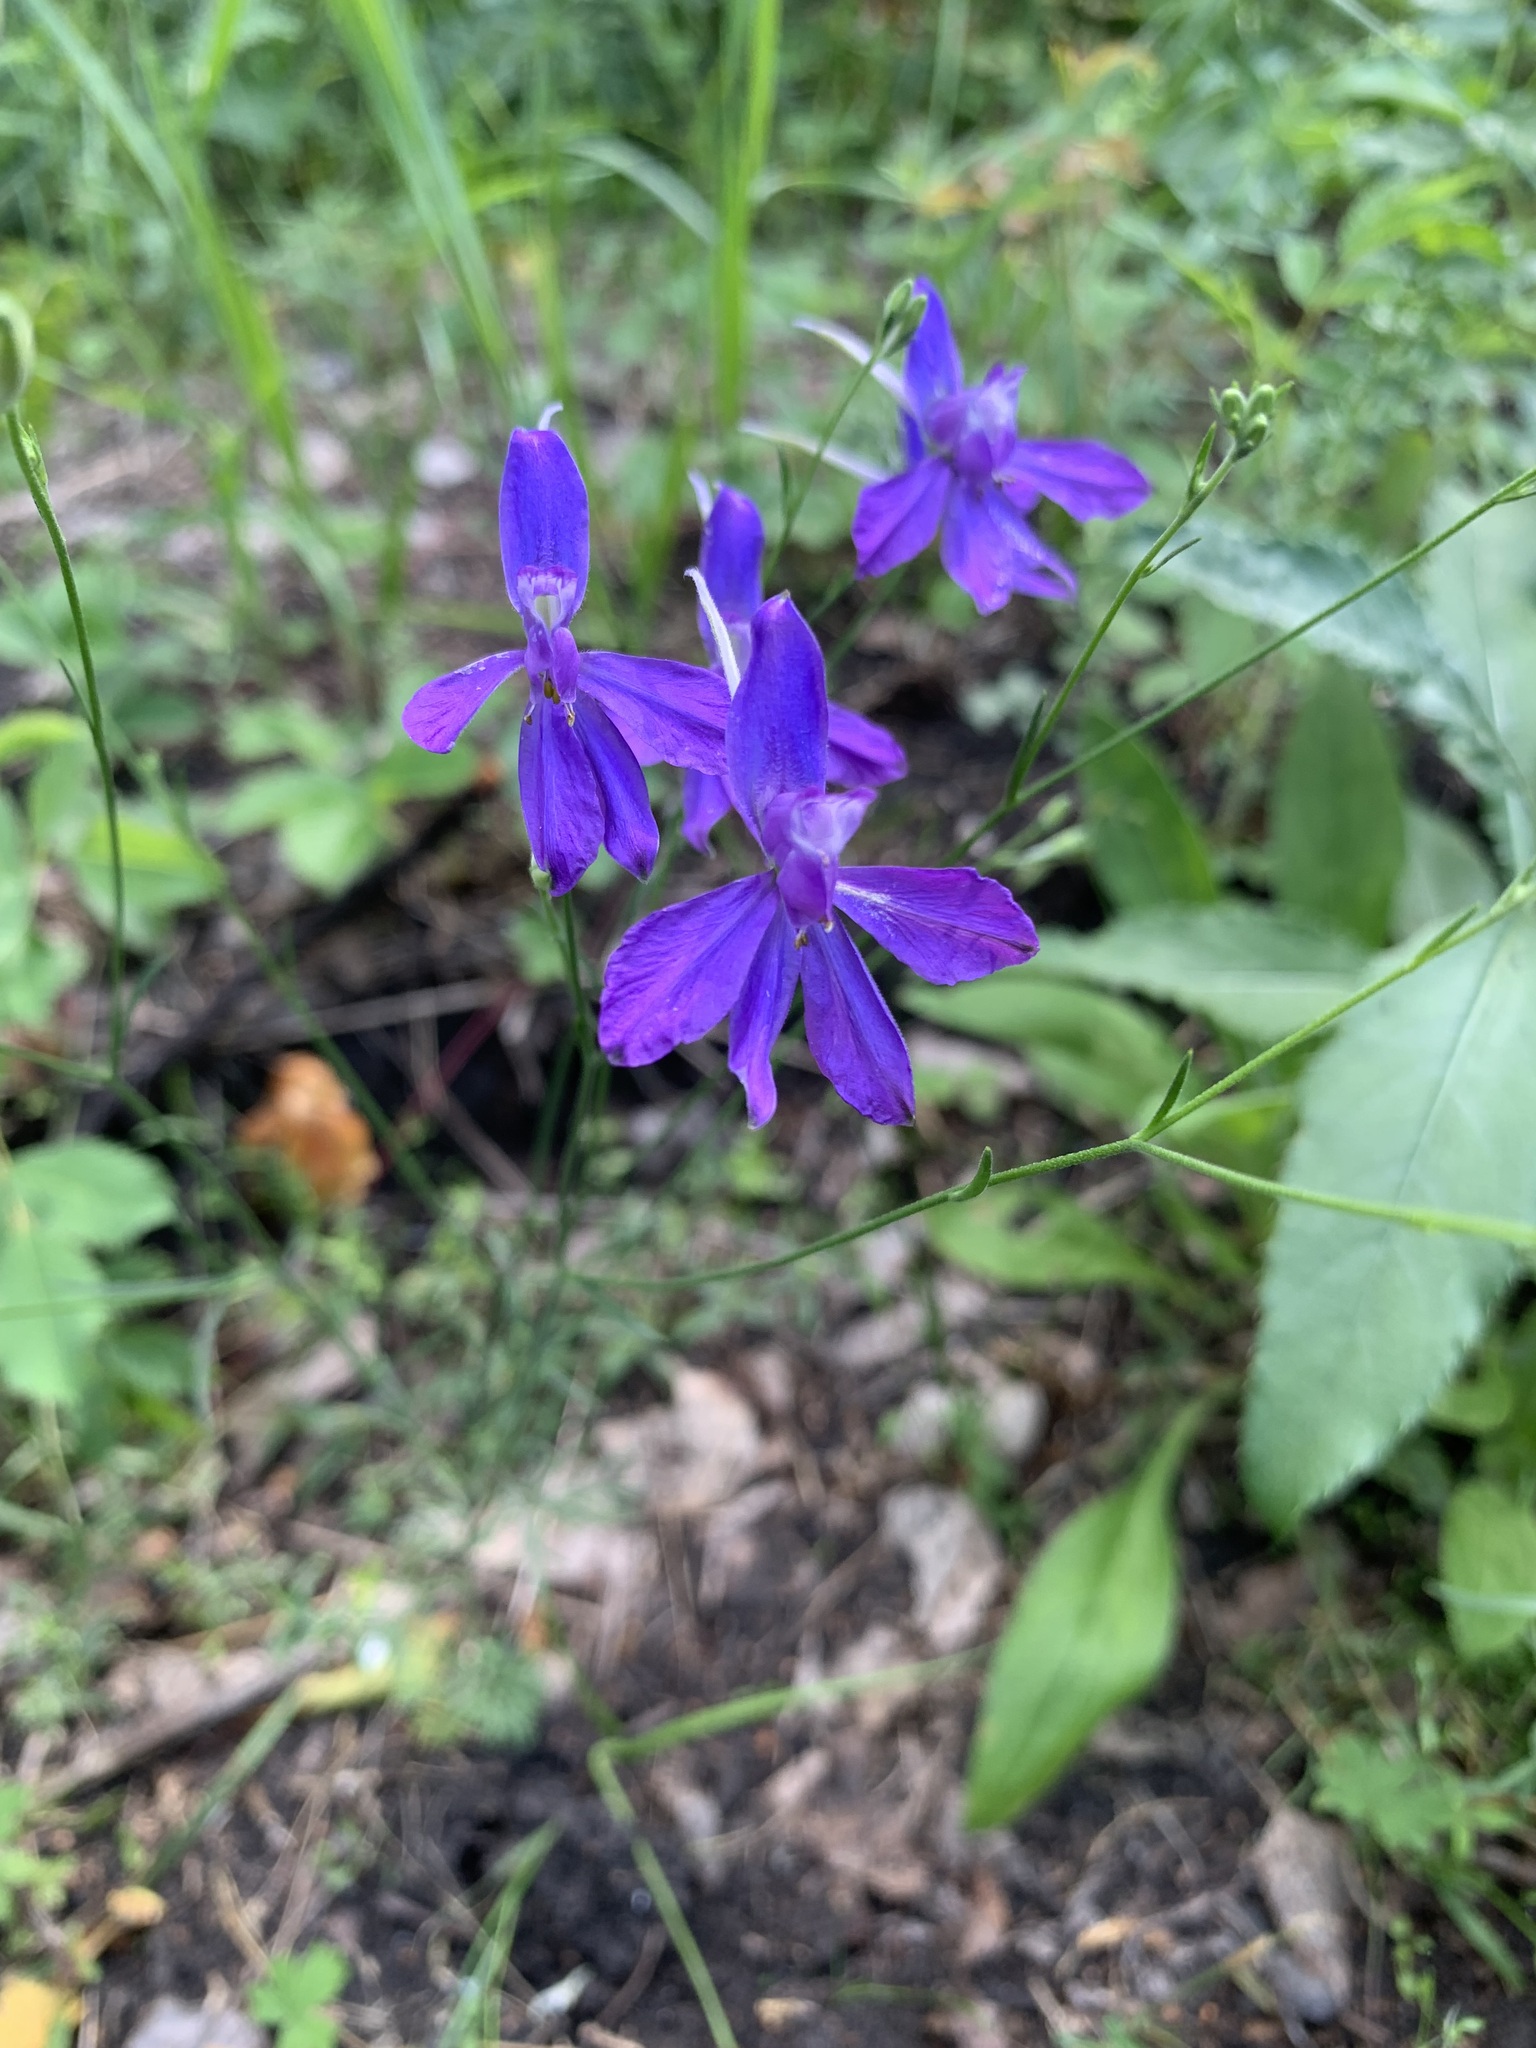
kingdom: Plantae
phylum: Tracheophyta
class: Magnoliopsida
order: Ranunculales
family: Ranunculaceae
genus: Delphinium
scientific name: Delphinium consolida
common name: Branching larkspur
